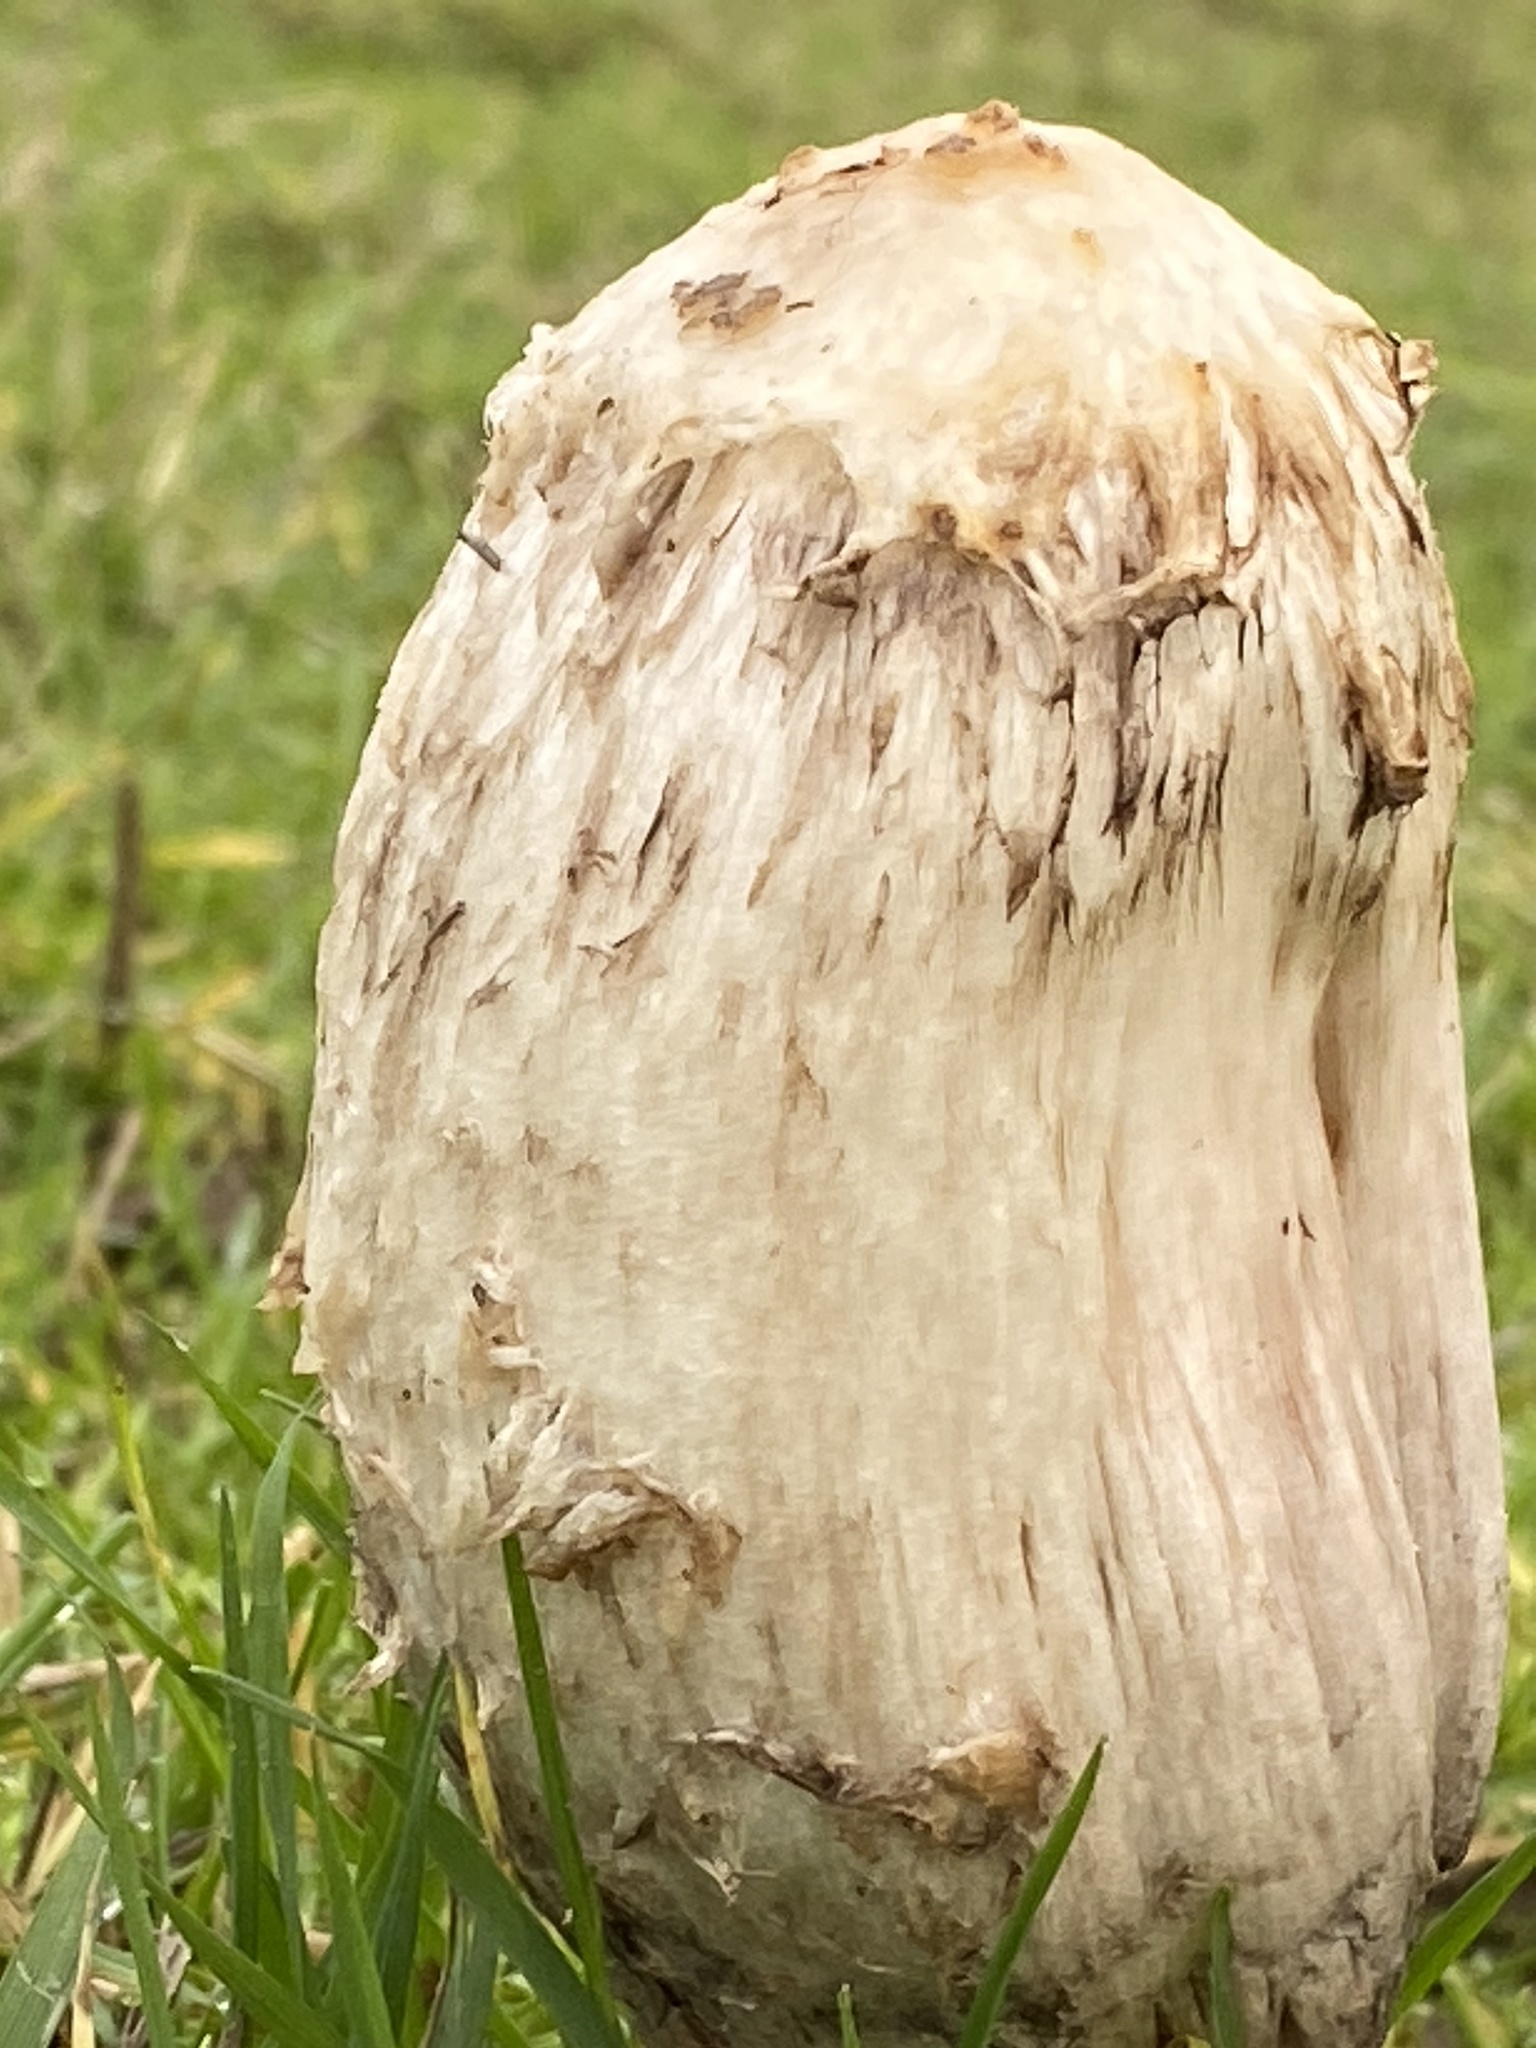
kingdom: Fungi
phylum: Basidiomycota
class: Agaricomycetes
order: Agaricales
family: Agaricaceae
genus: Coprinus
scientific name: Coprinus comatus
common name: Lawyer's wig
